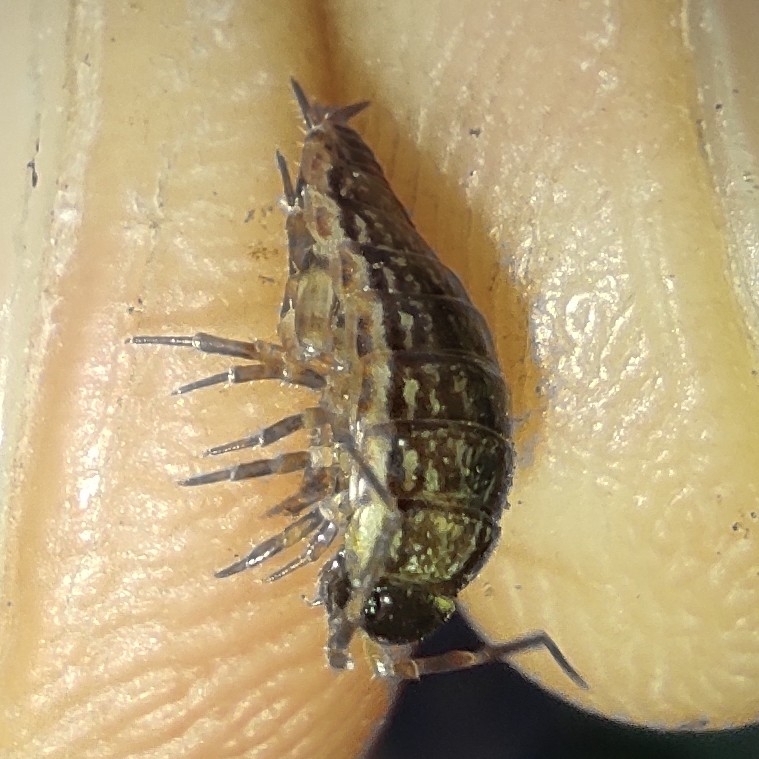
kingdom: Animalia
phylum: Arthropoda
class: Malacostraca
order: Isopoda
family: Philosciidae
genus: Philoscia
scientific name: Philoscia muscorum
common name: Common striped woodlouse
